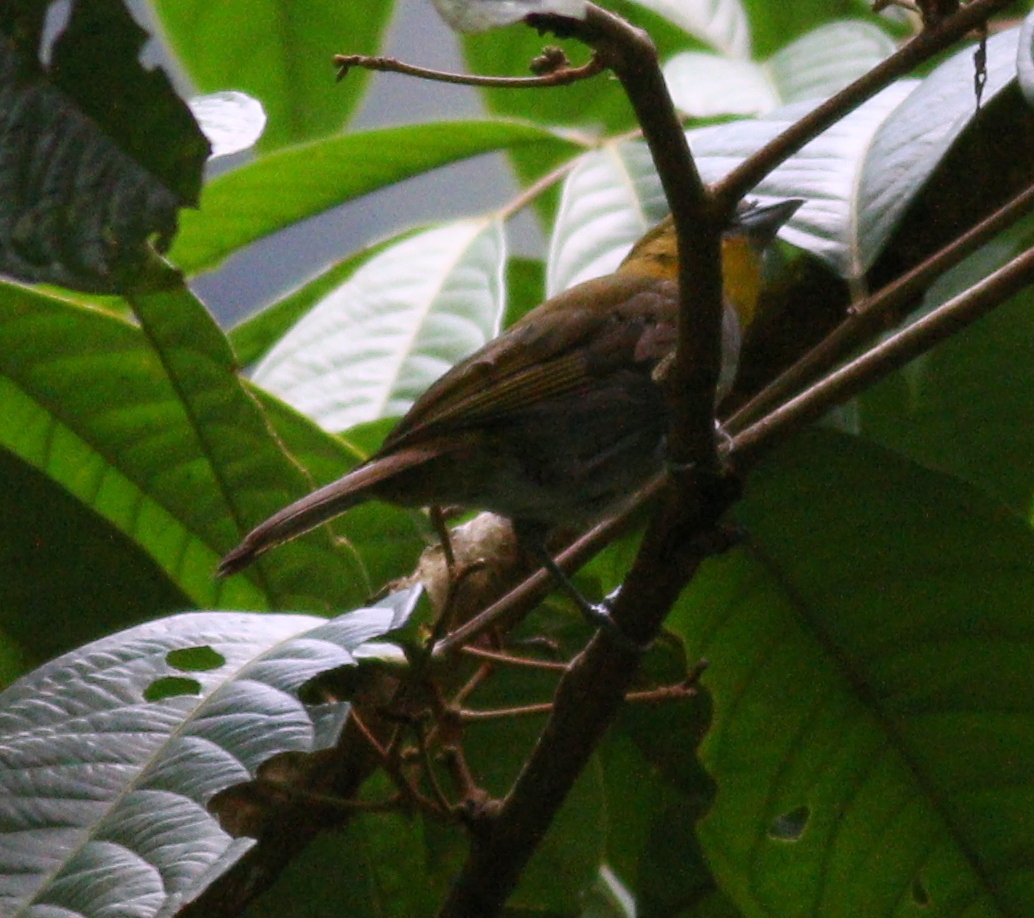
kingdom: Animalia
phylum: Chordata
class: Aves
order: Passeriformes
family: Passerellidae
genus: Chlorospingus
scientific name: Chlorospingus flavigularis
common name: Yellow-throated bush-tanager
